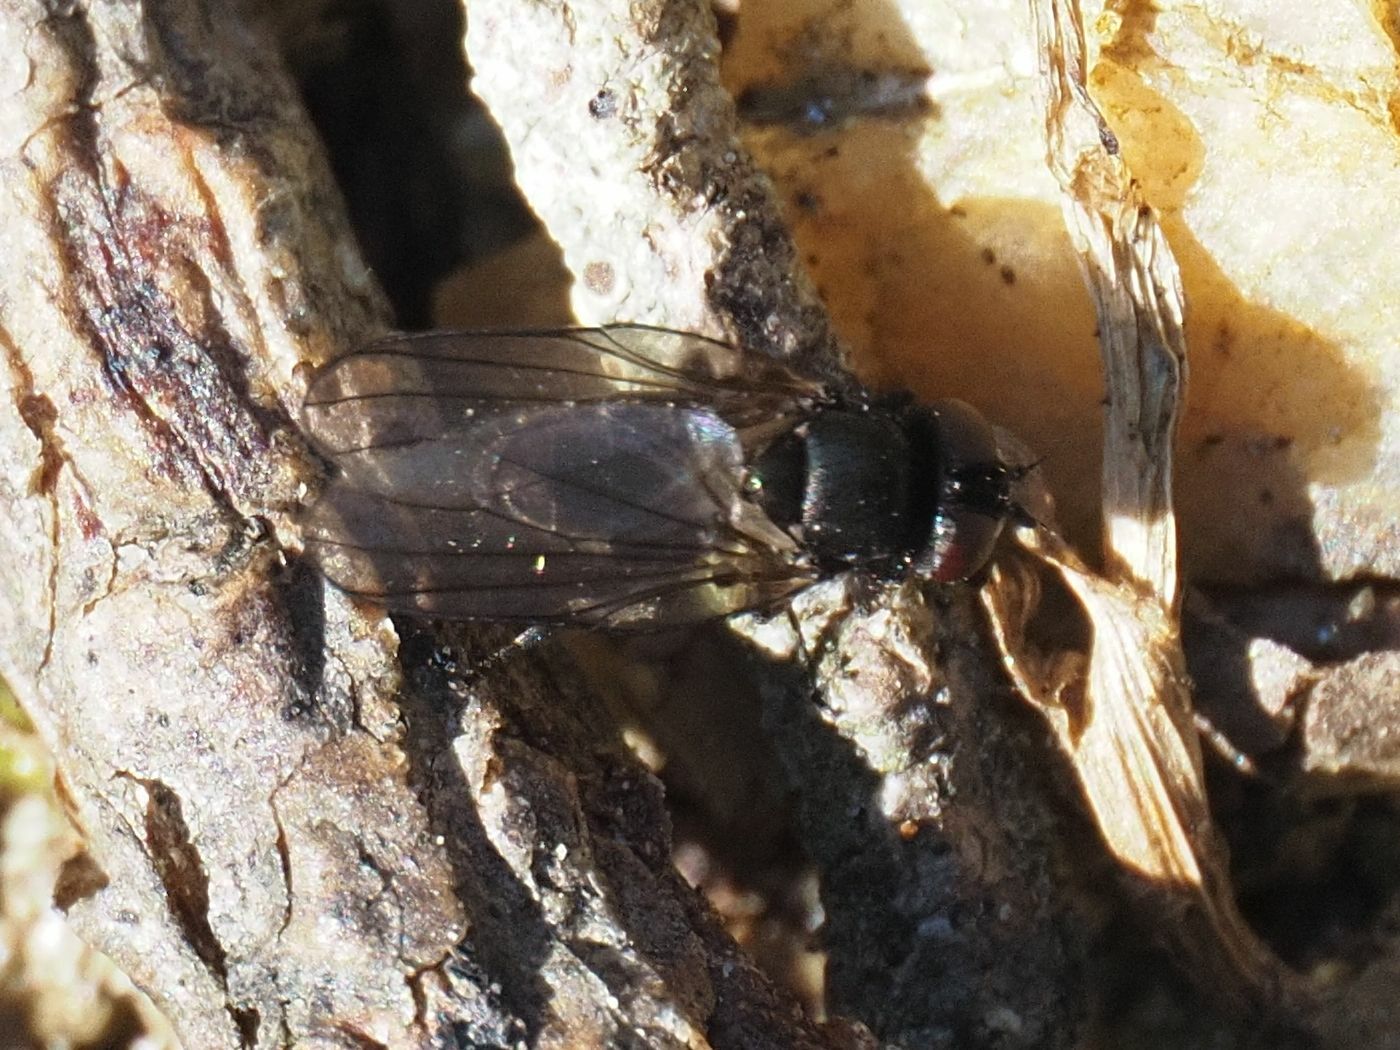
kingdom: Animalia
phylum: Arthropoda
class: Insecta
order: Diptera
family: Lonchaeidae
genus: Earomyia
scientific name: Earomyia lonchaeoides
